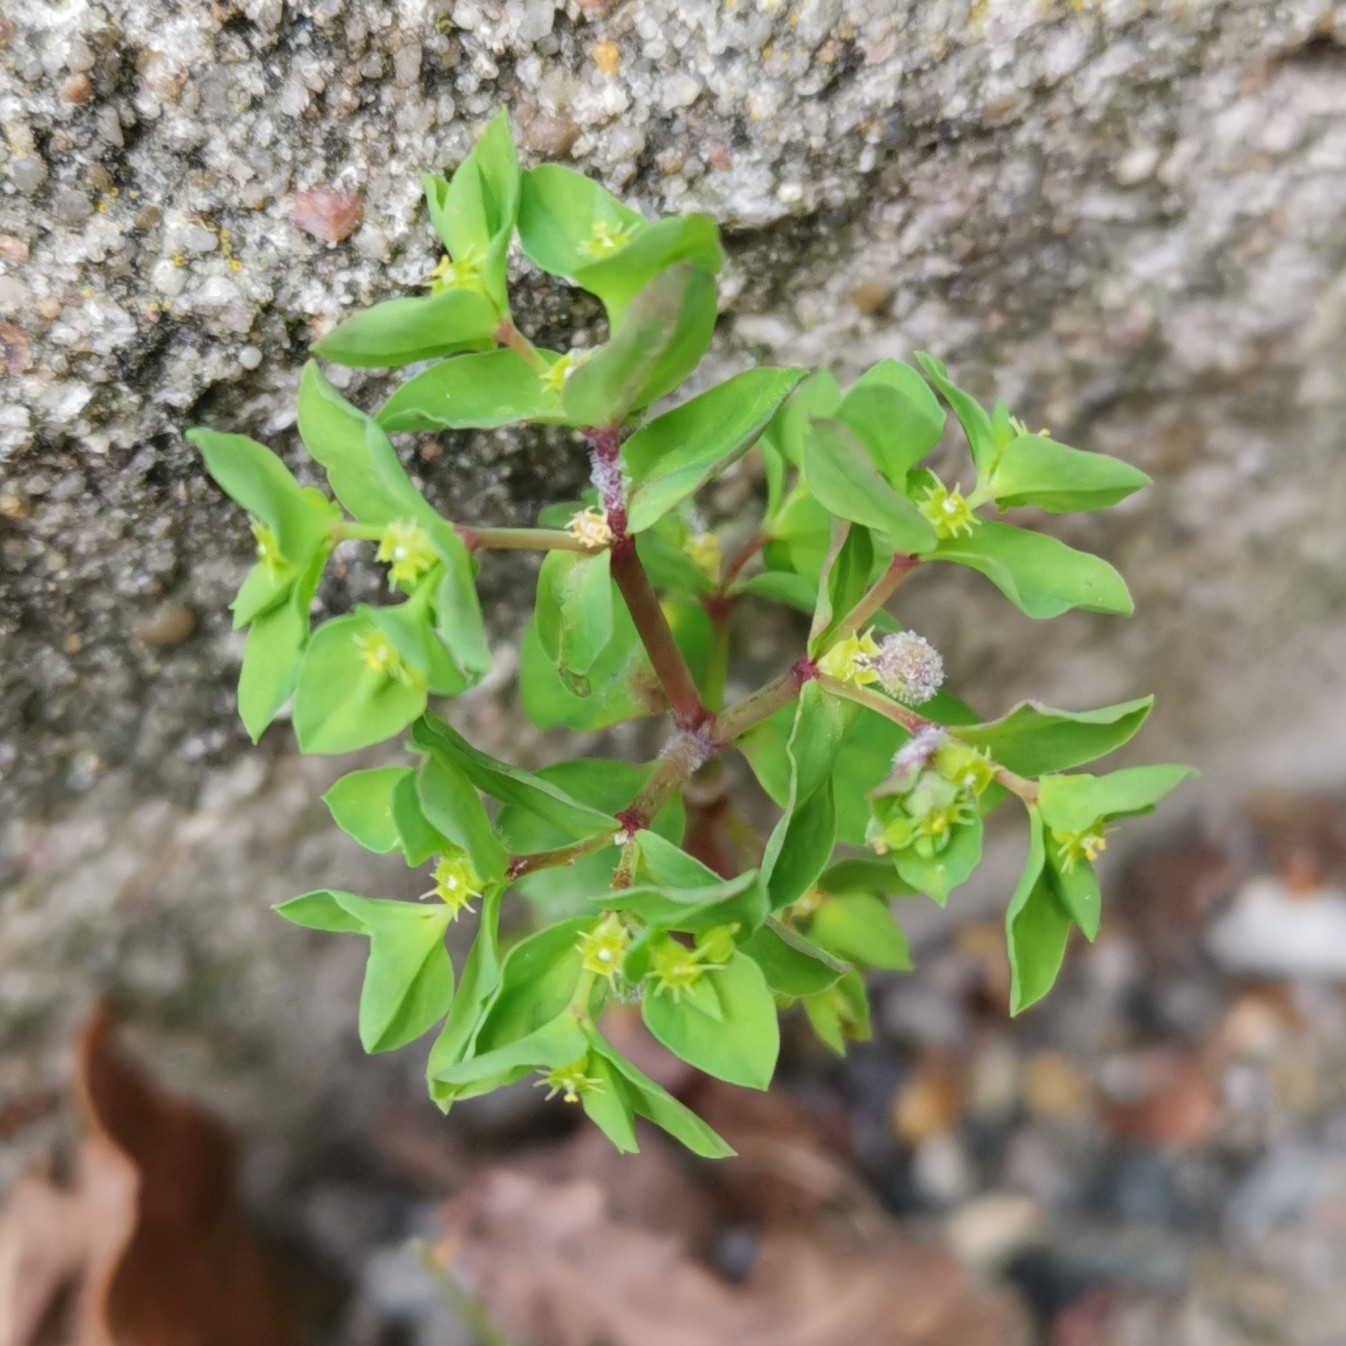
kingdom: Plantae
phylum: Tracheophyta
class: Magnoliopsida
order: Malpighiales
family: Euphorbiaceae
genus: Euphorbia
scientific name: Euphorbia peplus
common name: Petty spurge
